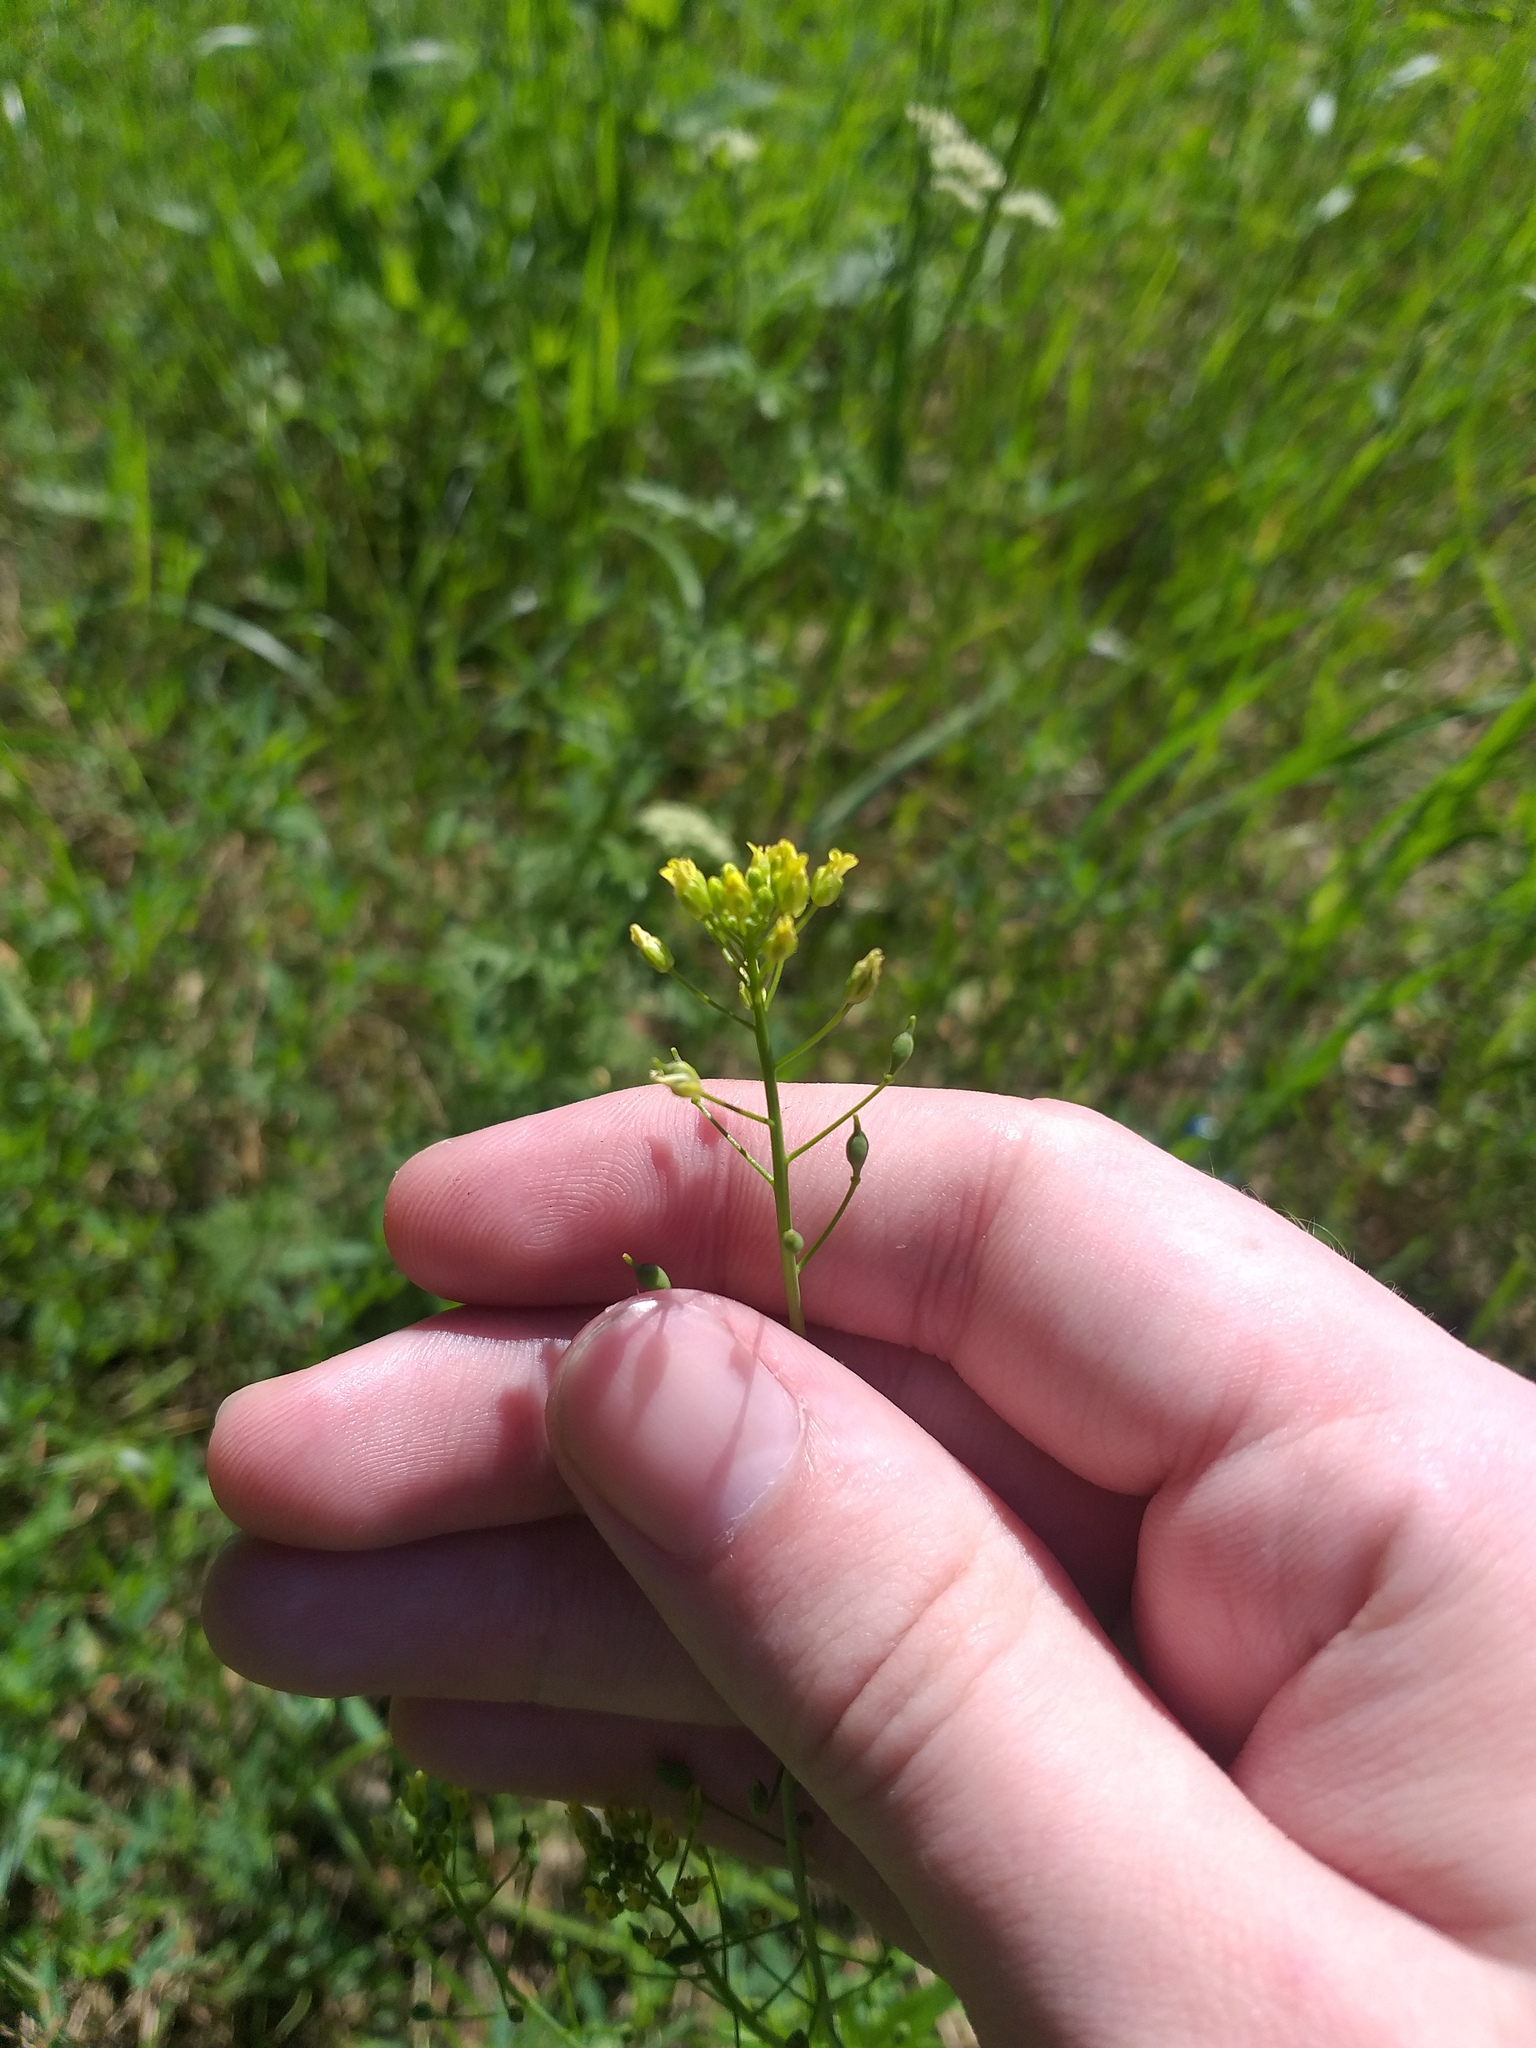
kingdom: Plantae
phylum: Tracheophyta
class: Magnoliopsida
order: Brassicales
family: Brassicaceae
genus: Camelina
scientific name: Camelina microcarpa
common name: Lesser gold-of-pleasure
